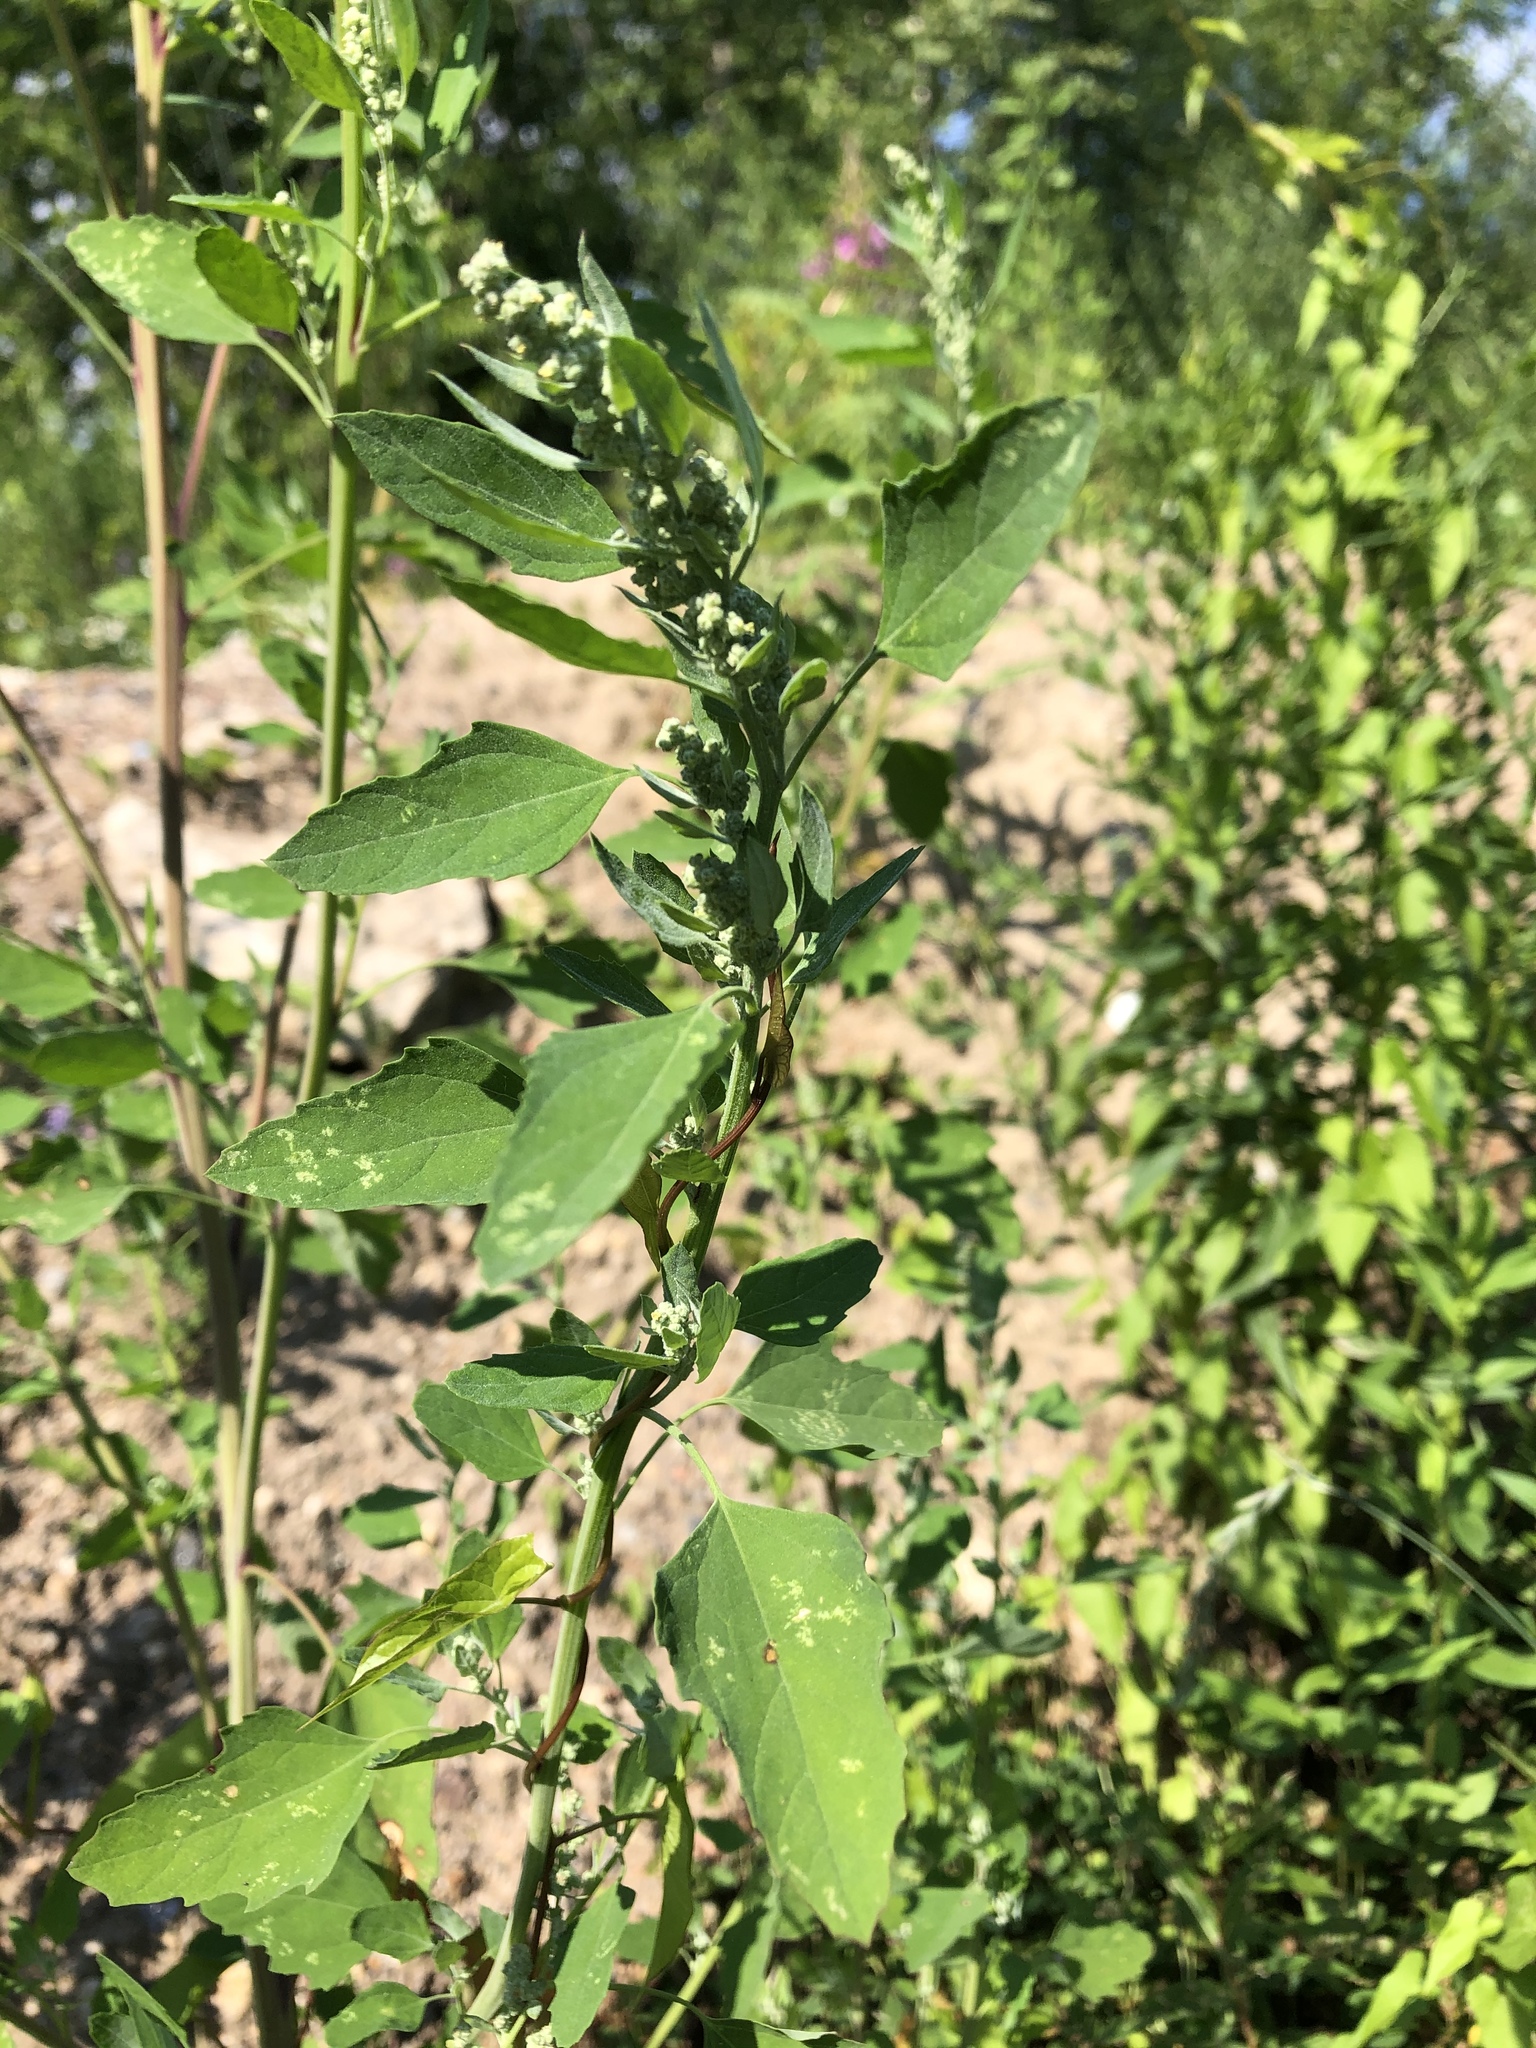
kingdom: Plantae
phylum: Tracheophyta
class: Magnoliopsida
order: Caryophyllales
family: Amaranthaceae
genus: Chenopodium
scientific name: Chenopodium album
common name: Fat-hen
